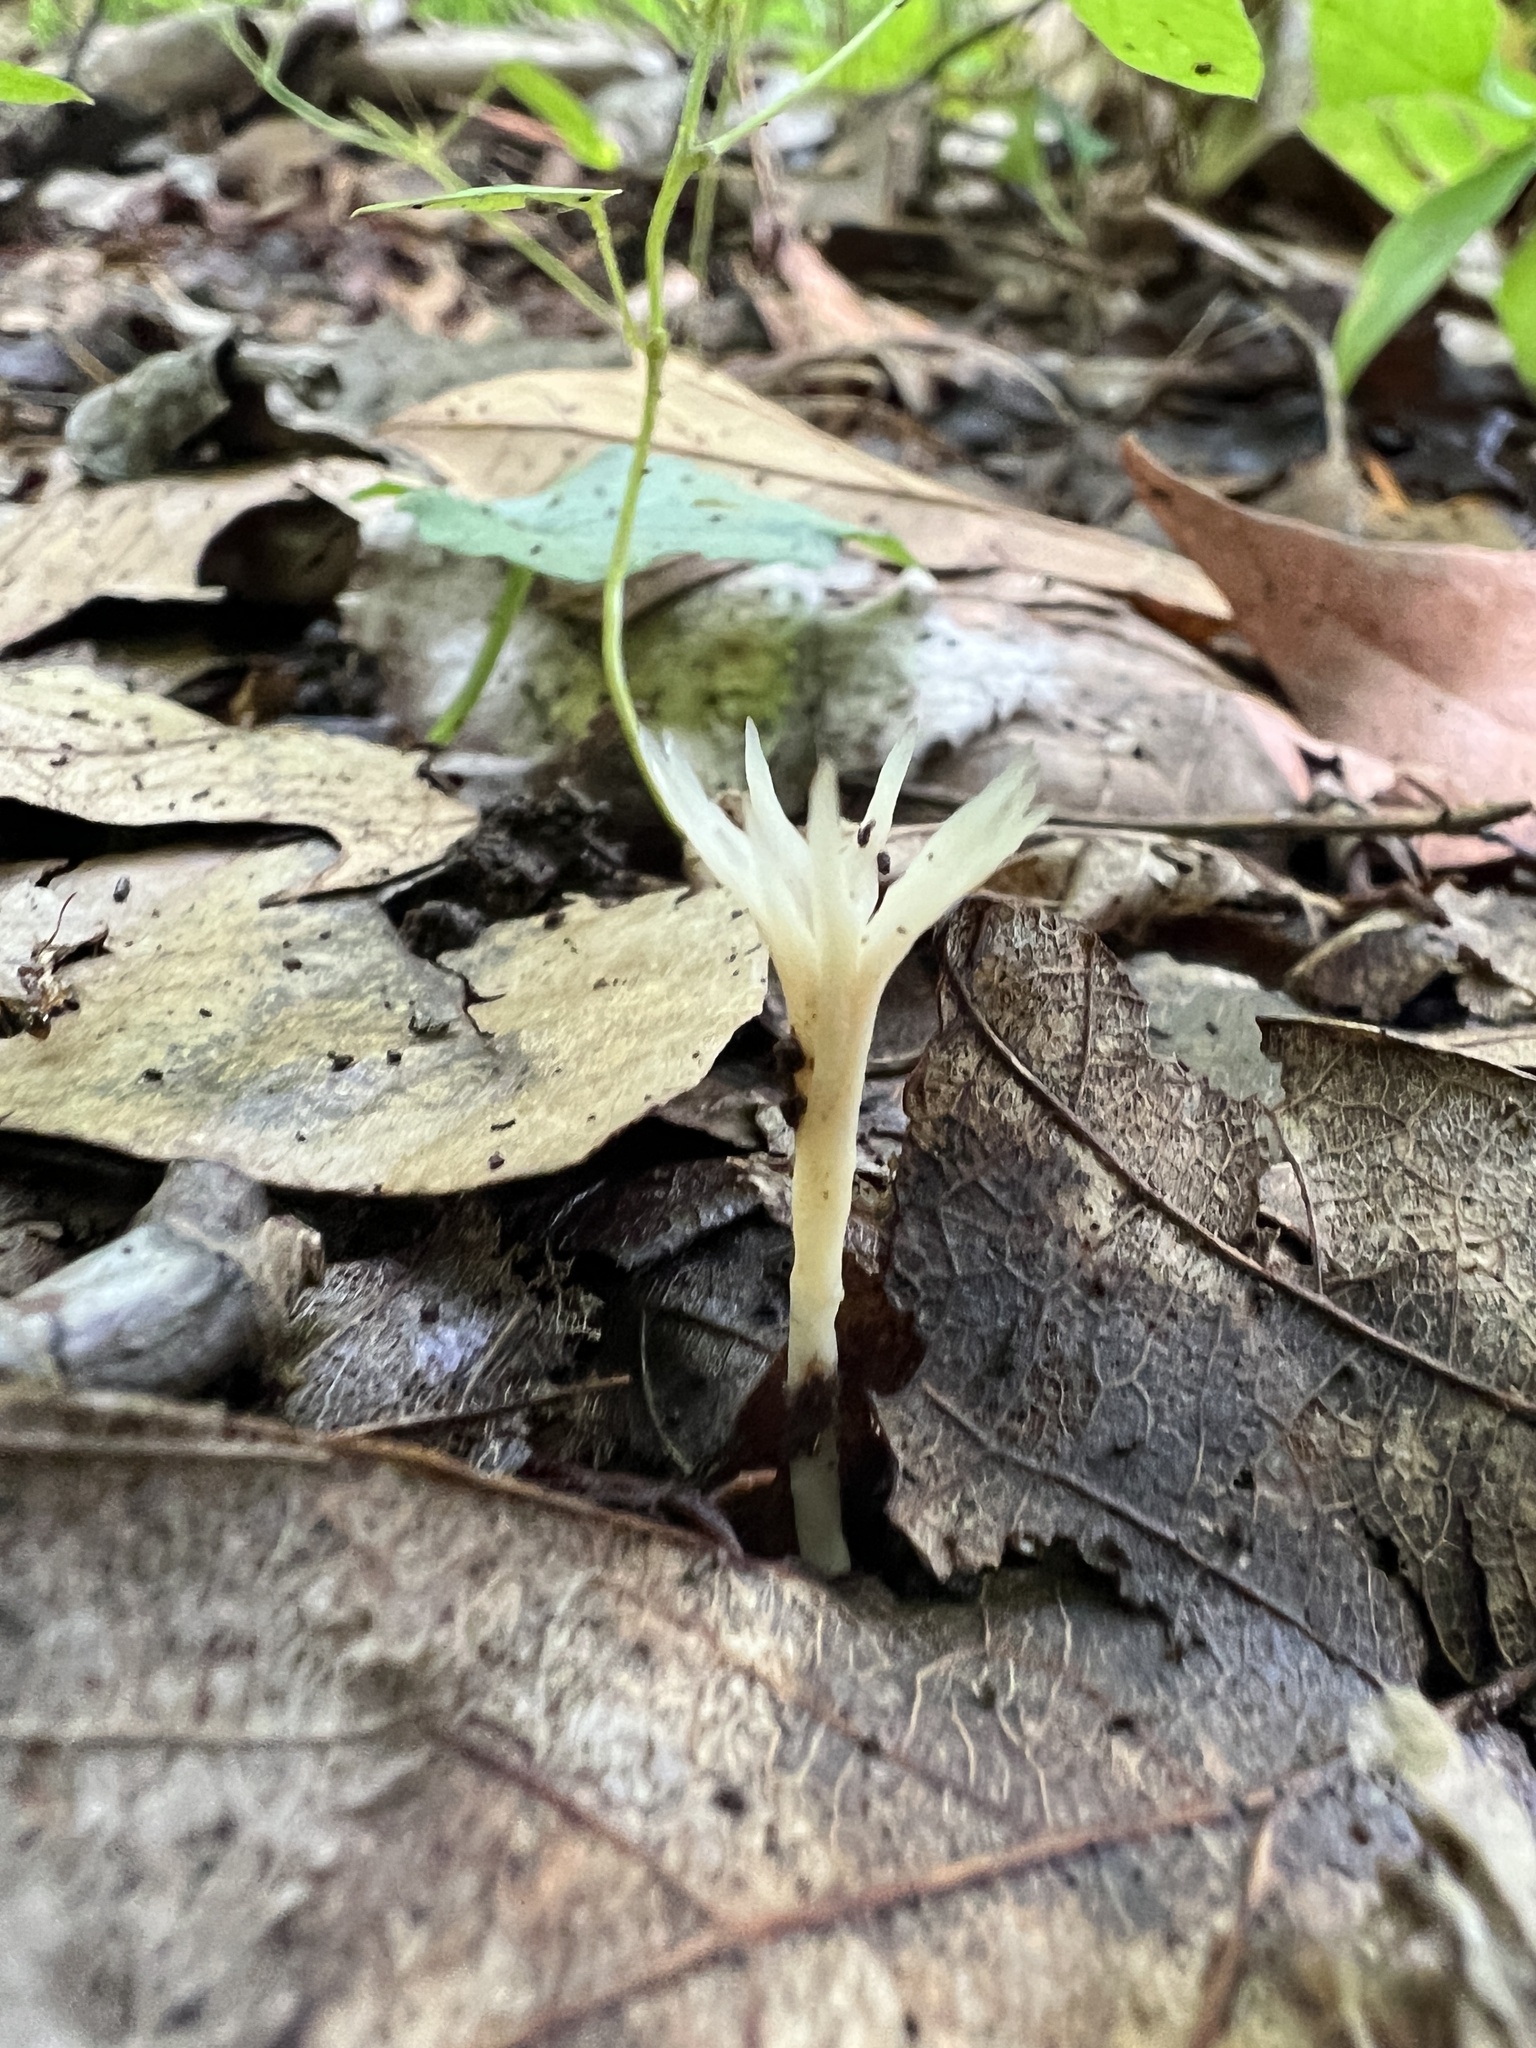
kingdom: Fungi
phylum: Basidiomycota
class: Agaricomycetes
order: Tremellodendropsidales
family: Tremellodendropsidaceae
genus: Tremellodendropsis
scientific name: Tremellodendropsis tuberosa
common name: Ashen coral
